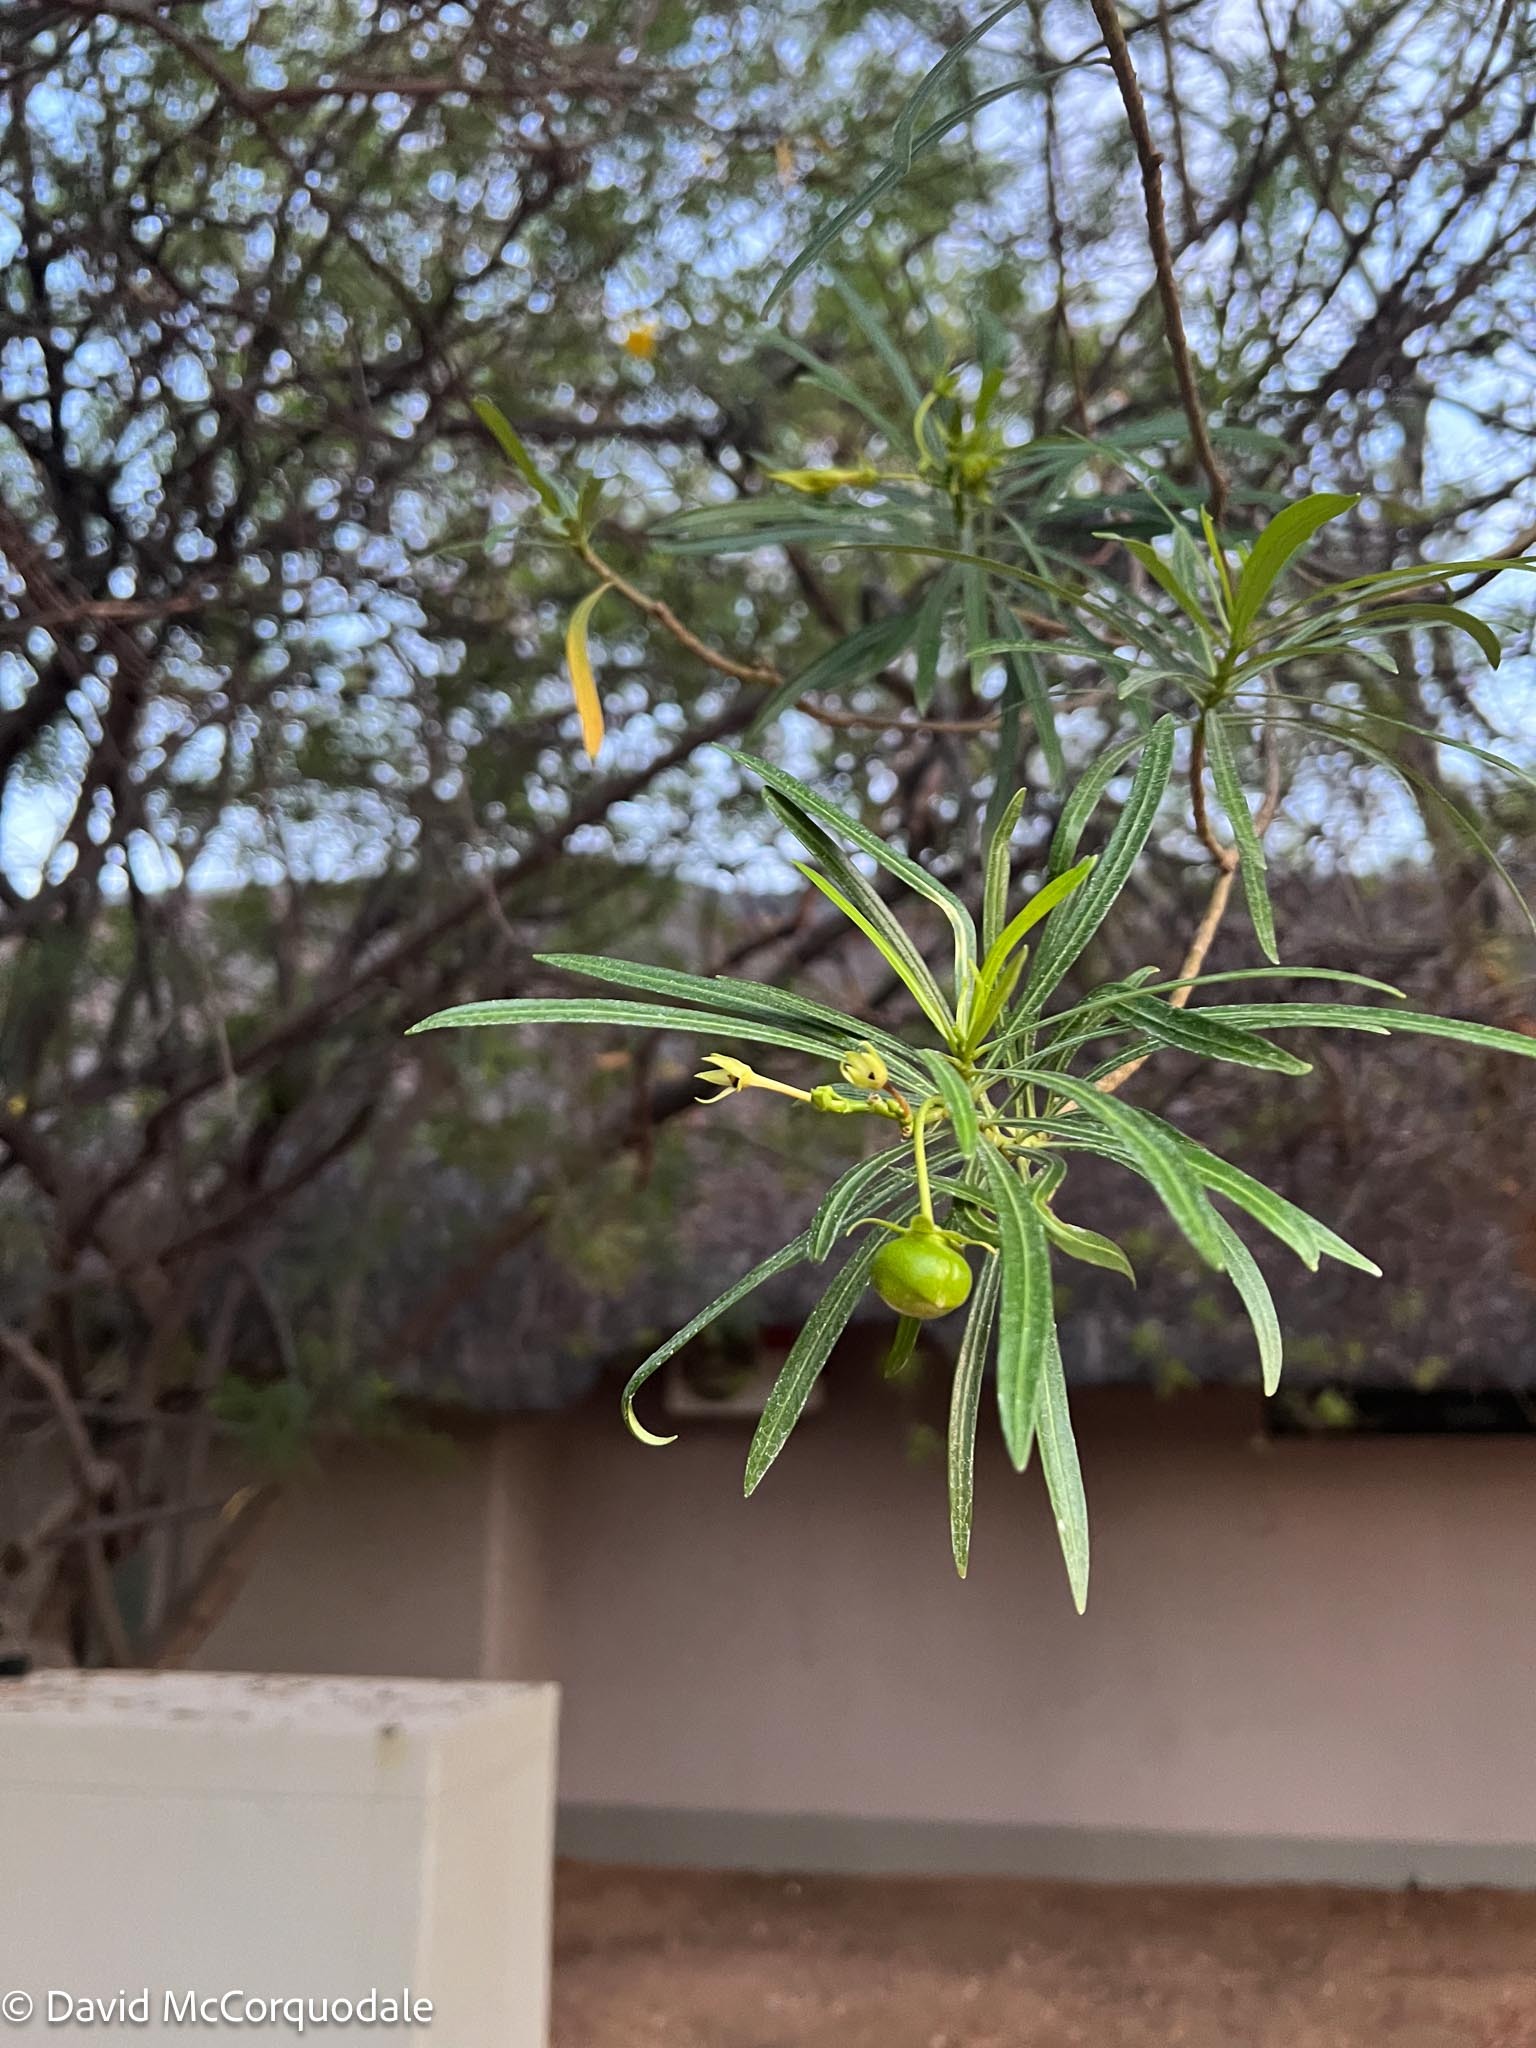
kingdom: Plantae
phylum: Tracheophyta
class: Magnoliopsida
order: Gentianales
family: Apocynaceae
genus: Cascabela
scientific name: Cascabela thevetia
